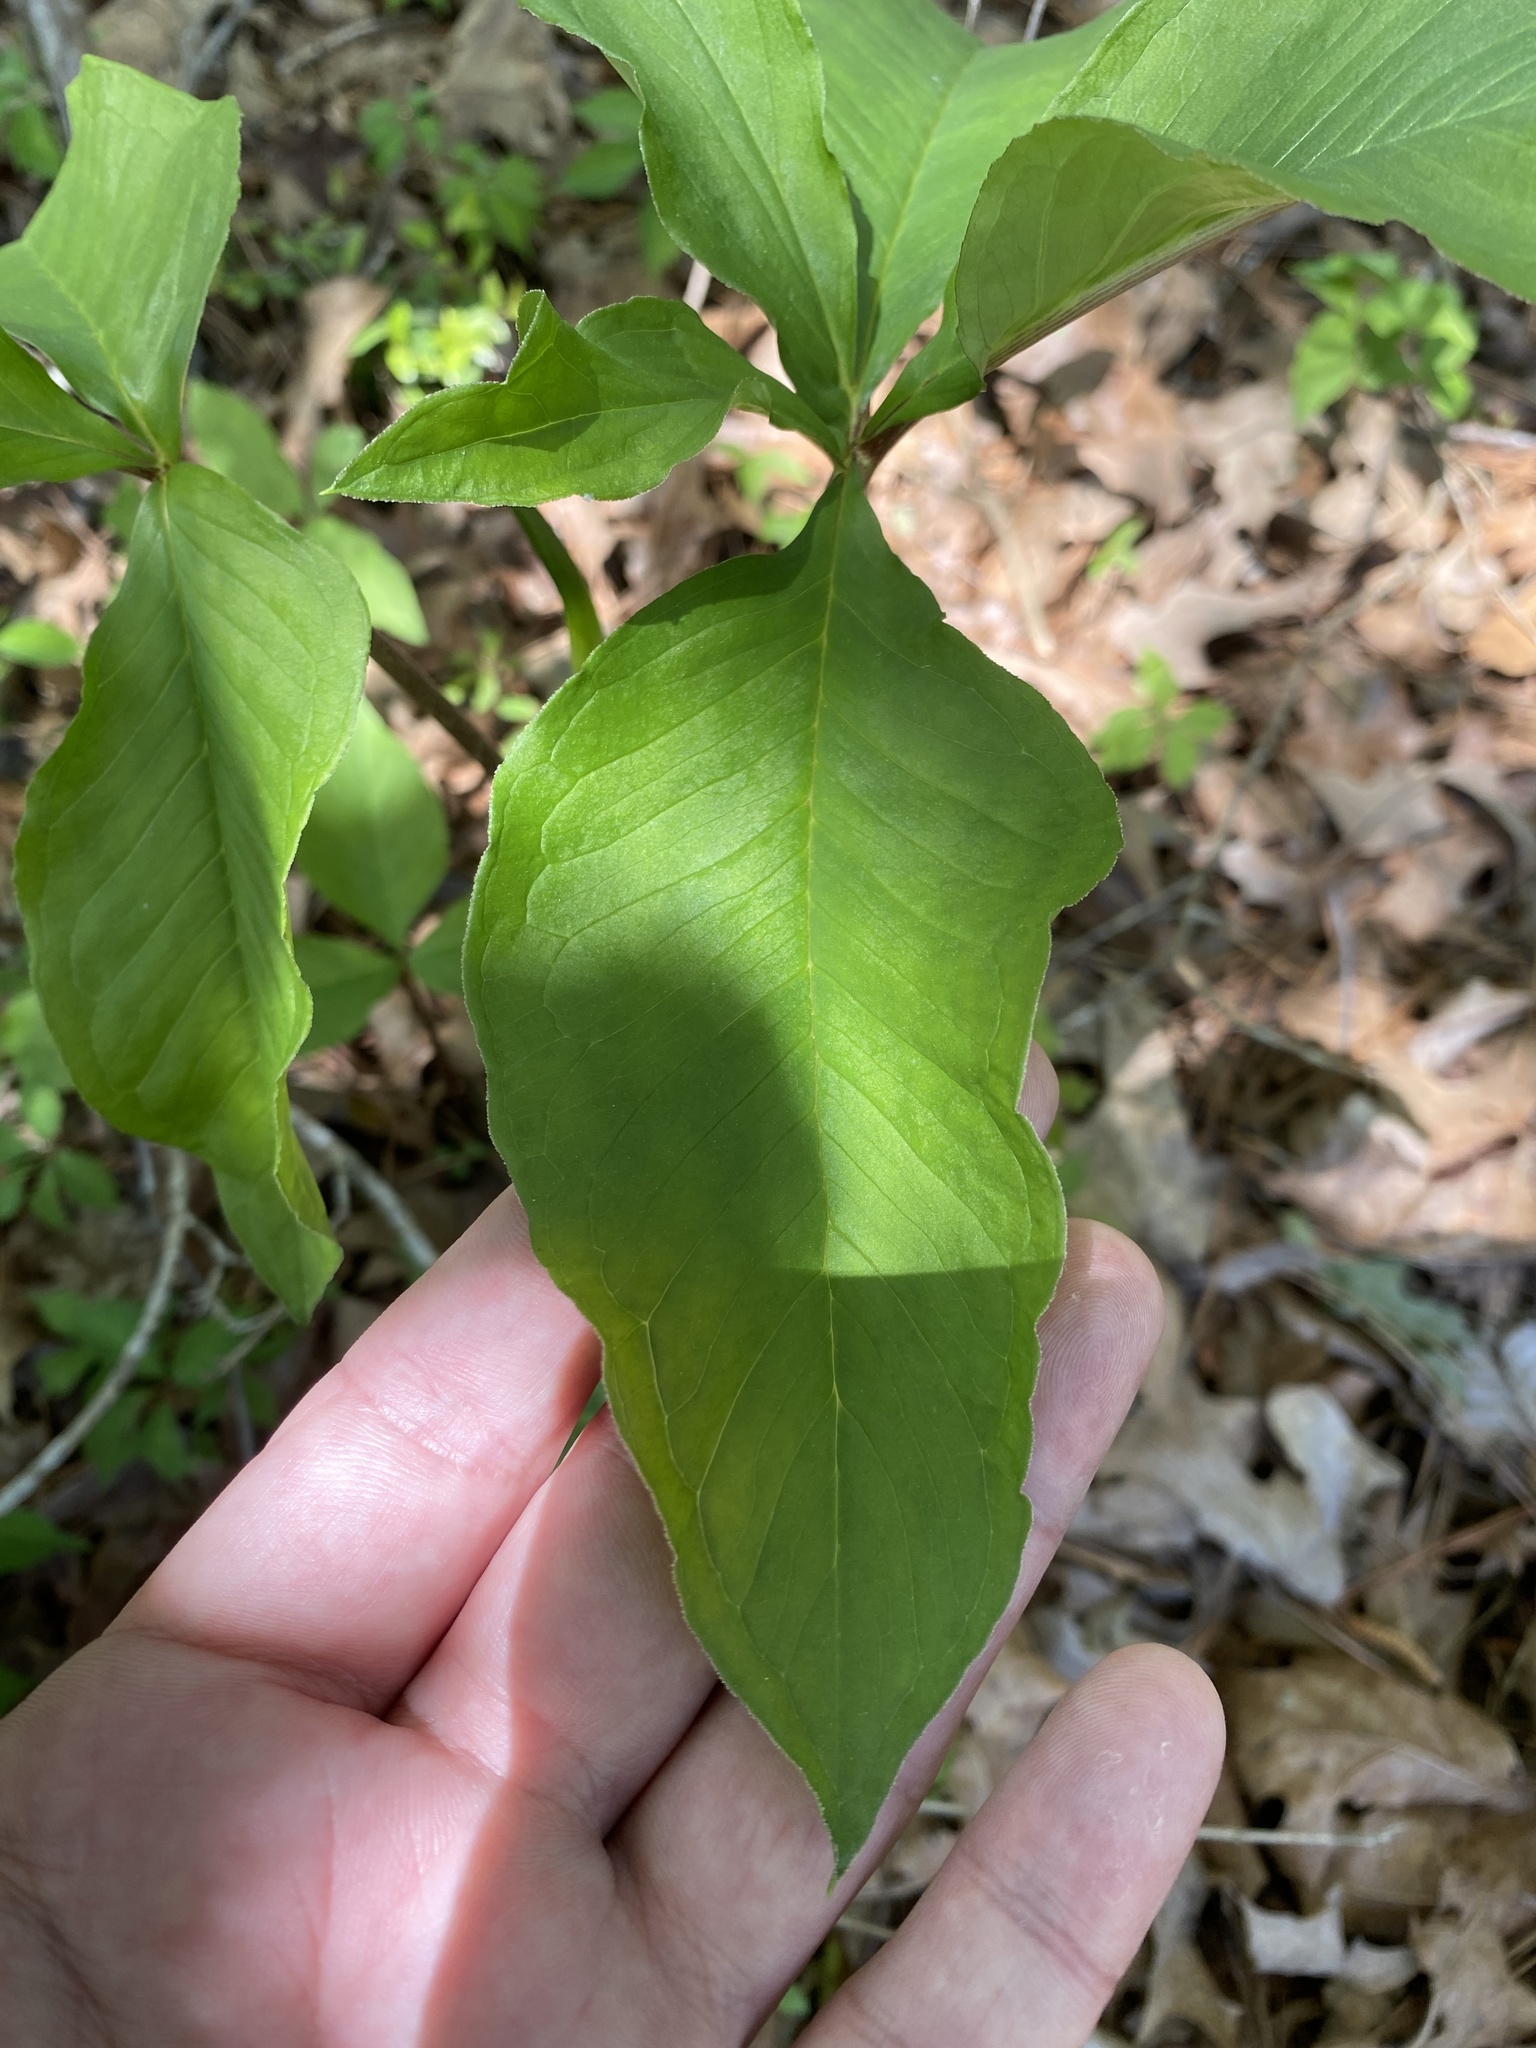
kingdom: Plantae
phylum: Tracheophyta
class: Liliopsida
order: Alismatales
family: Araceae
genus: Arisaema
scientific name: Arisaema quinatum
